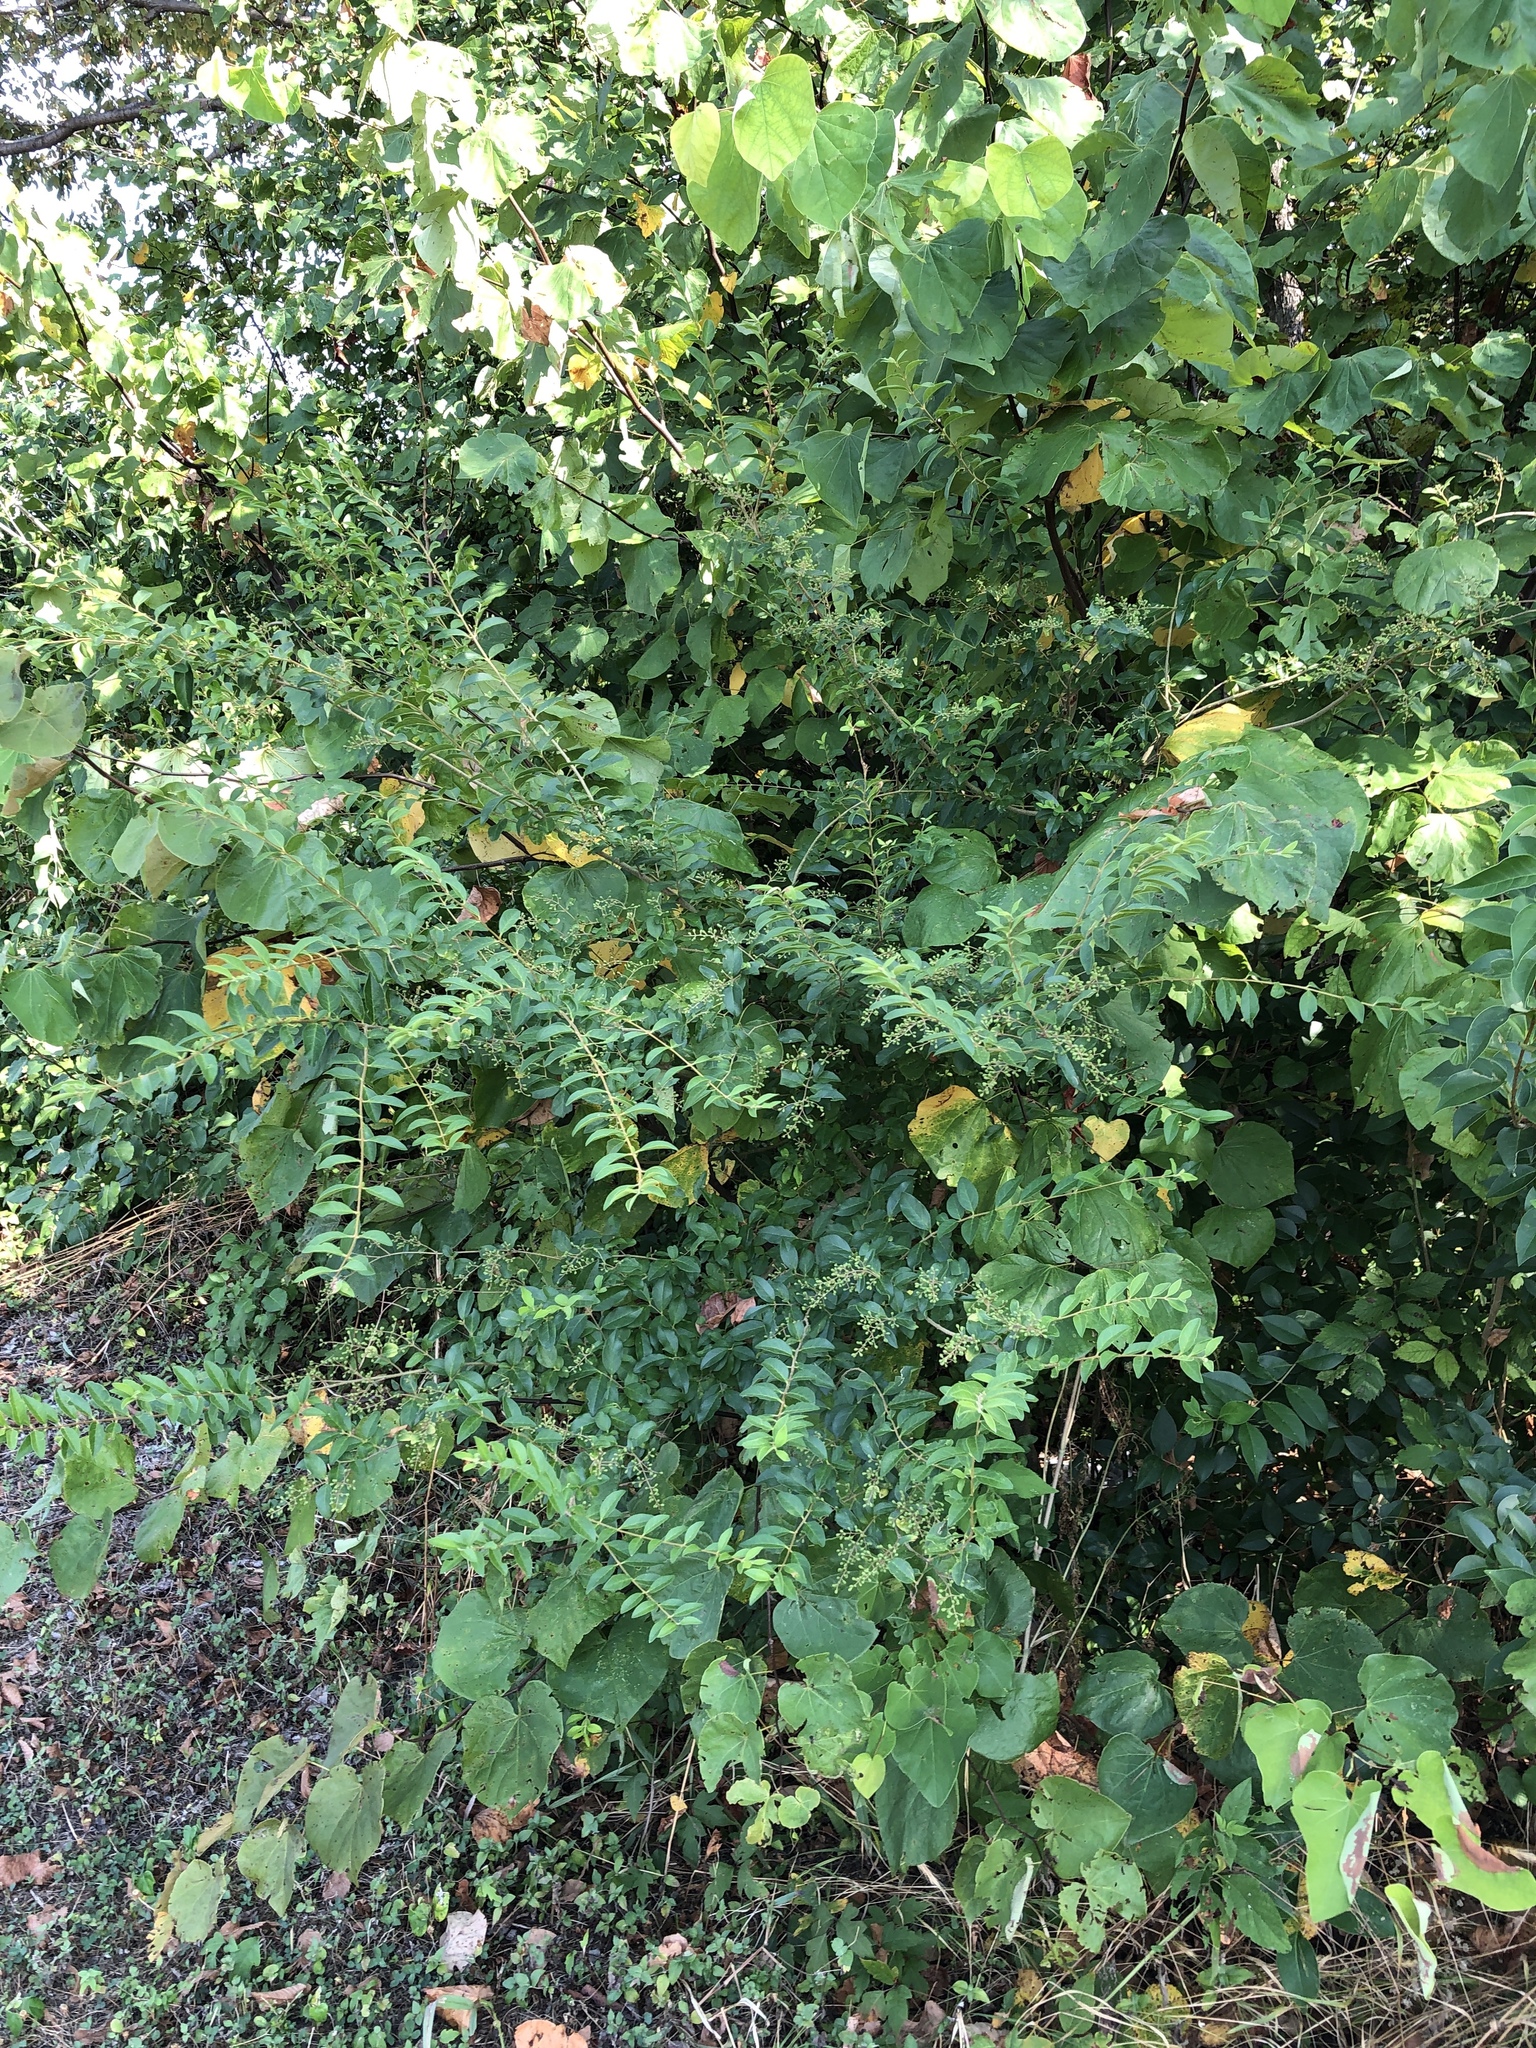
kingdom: Plantae
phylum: Tracheophyta
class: Magnoliopsida
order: Lamiales
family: Oleaceae
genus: Ligustrum
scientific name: Ligustrum sinense
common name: Chinese privet
